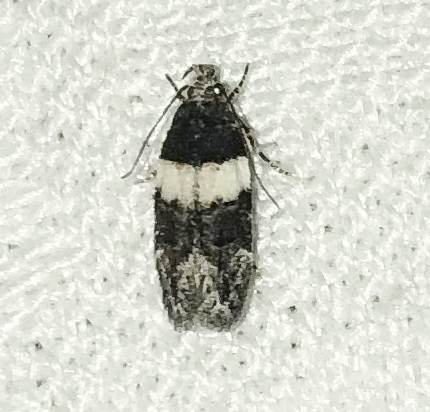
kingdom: Animalia
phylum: Arthropoda
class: Insecta
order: Lepidoptera
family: Gelechiidae
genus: Pubitelphusa
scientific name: Pubitelphusa latifasciella
